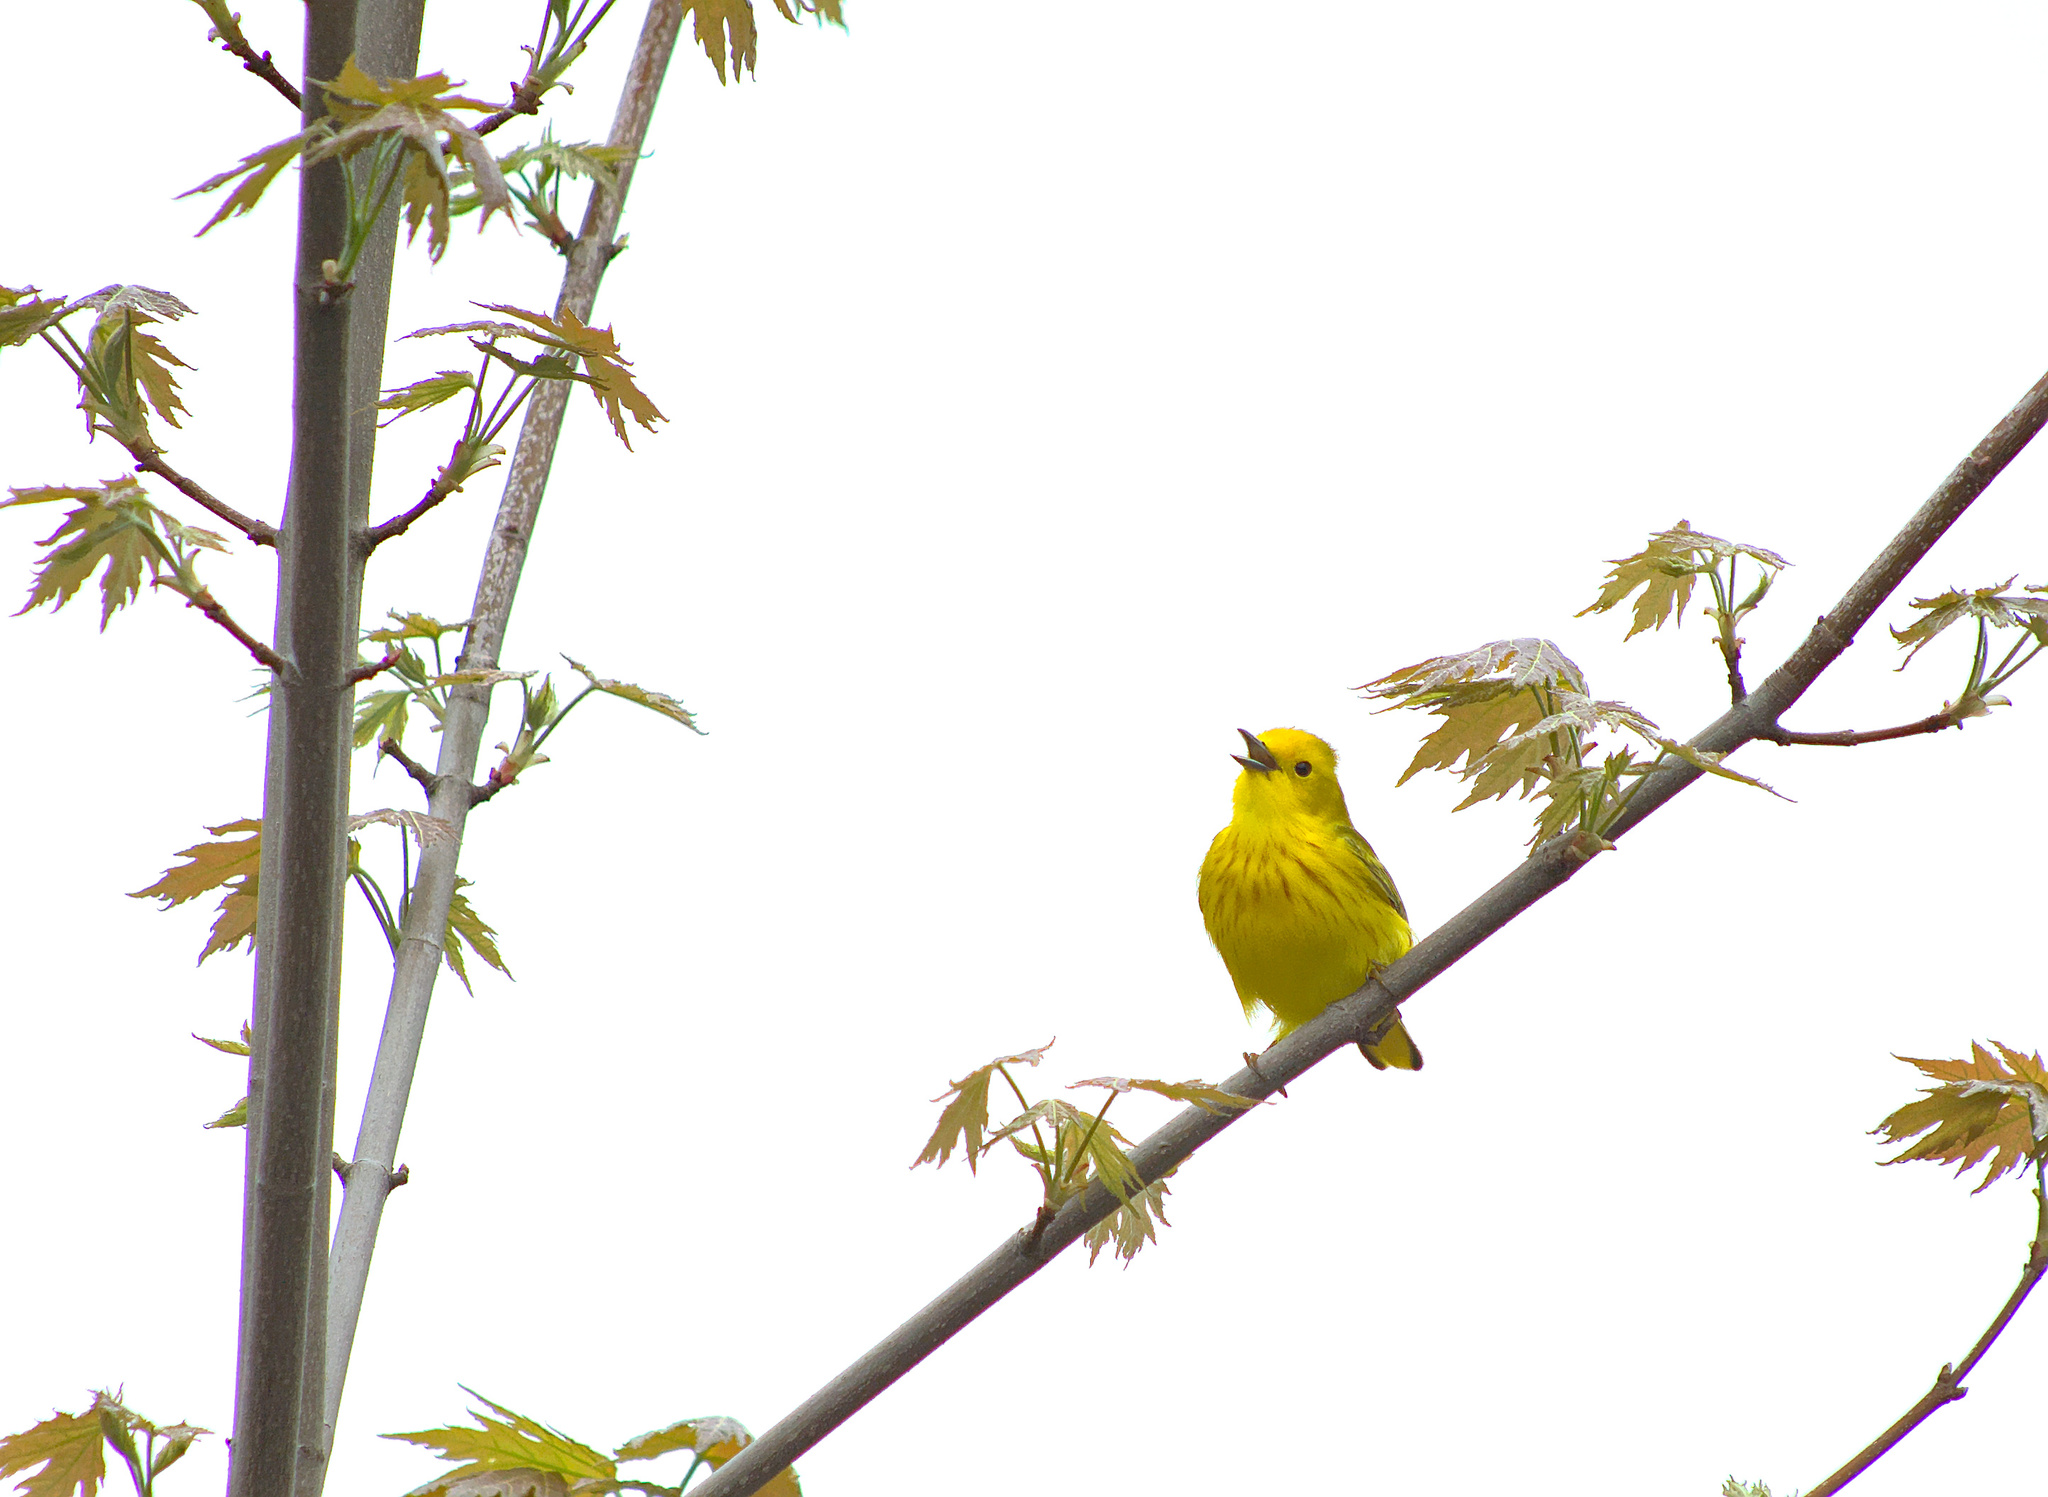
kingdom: Animalia
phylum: Chordata
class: Aves
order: Passeriformes
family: Parulidae
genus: Setophaga
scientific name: Setophaga petechia
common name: Yellow warbler
